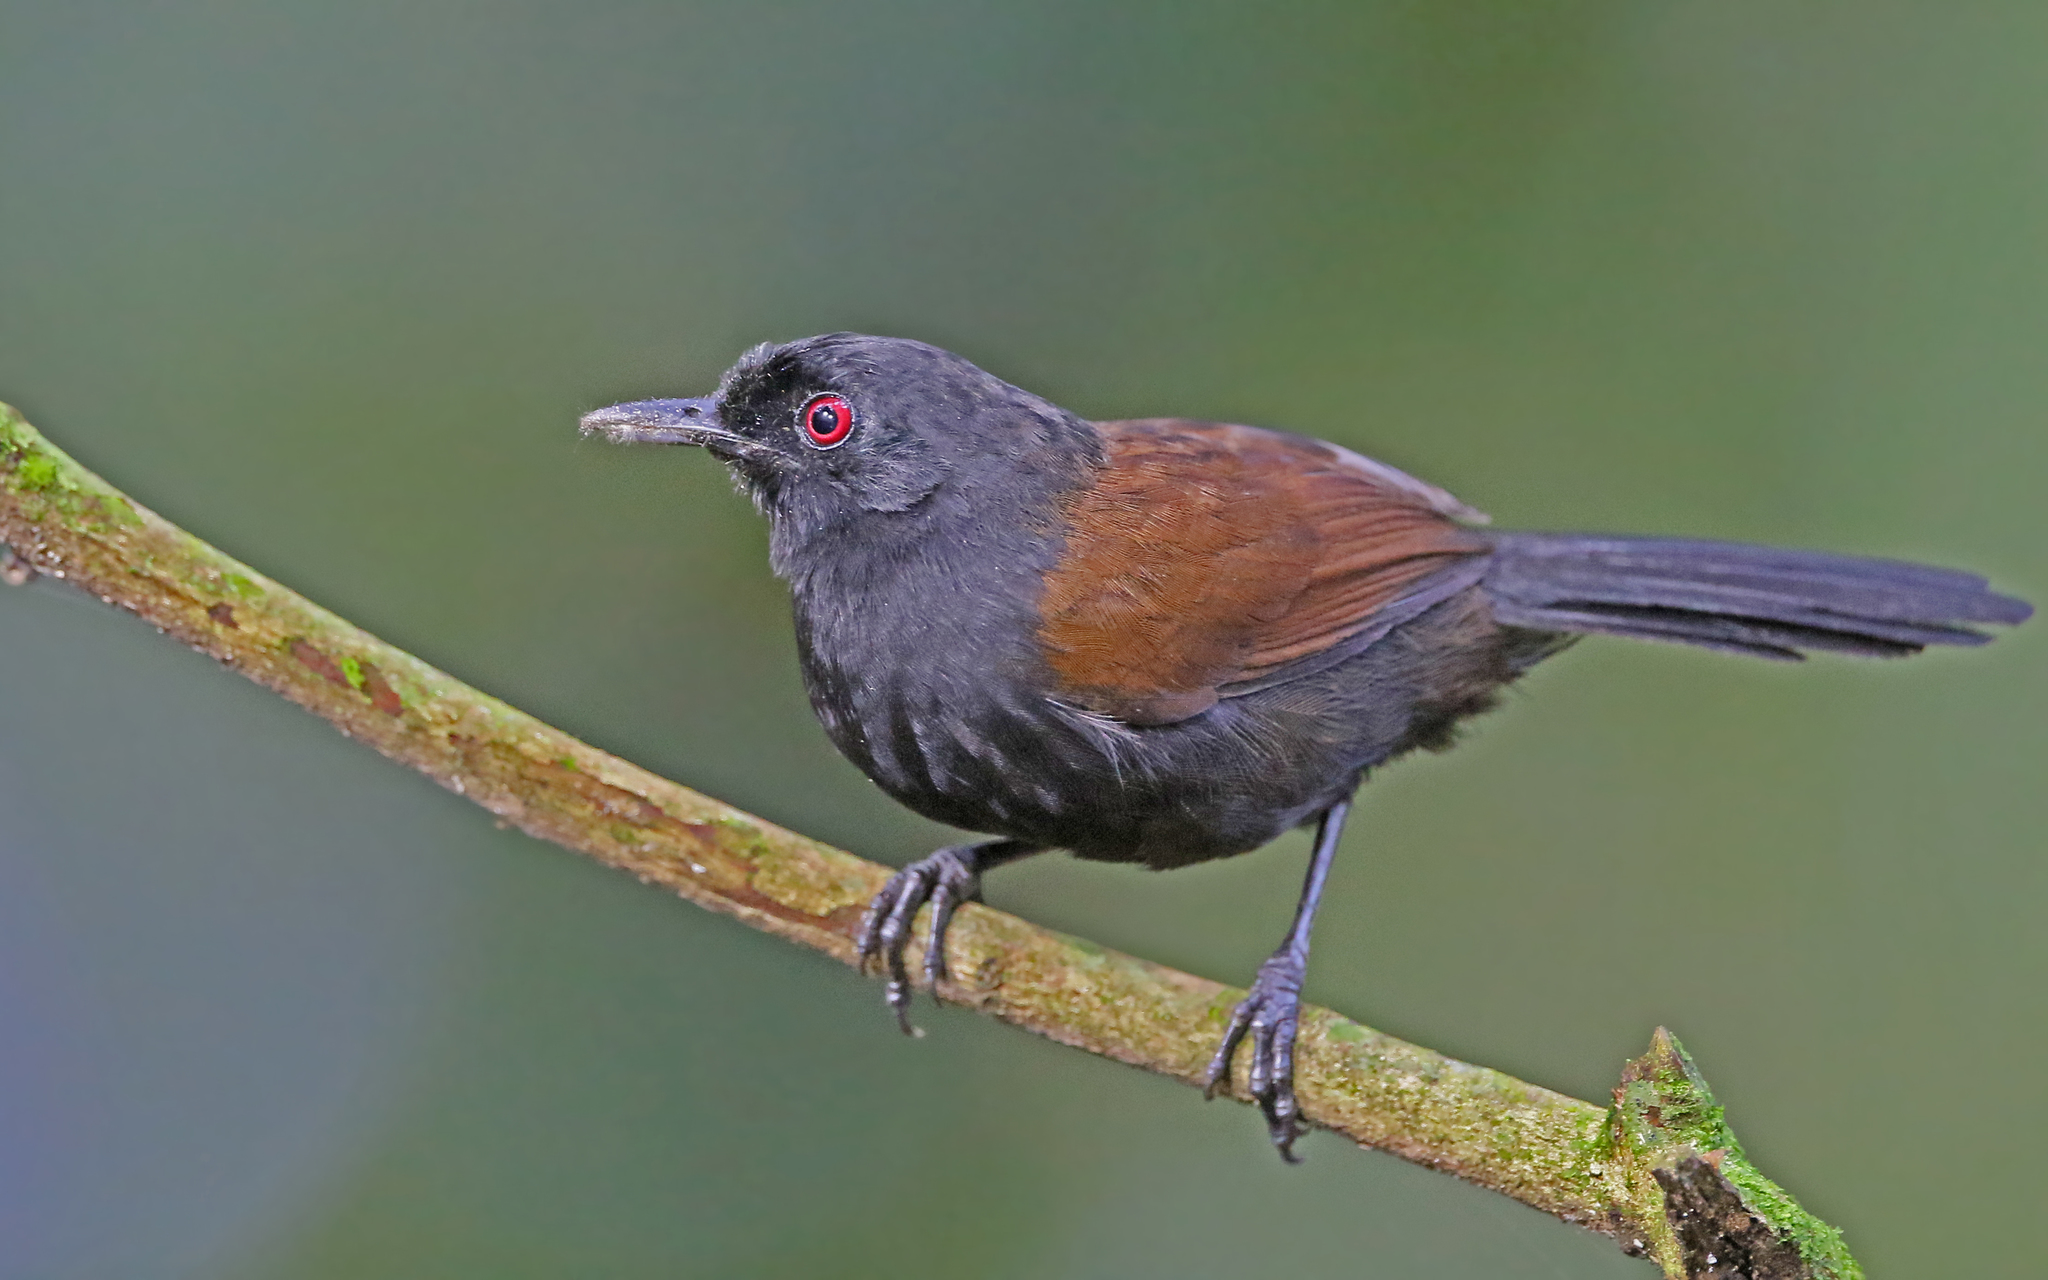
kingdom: Animalia
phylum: Chordata
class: Aves
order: Passeriformes
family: Thamnophilidae
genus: Pyriglena
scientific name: Pyriglena leuconota
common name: White-backed fire-eye
